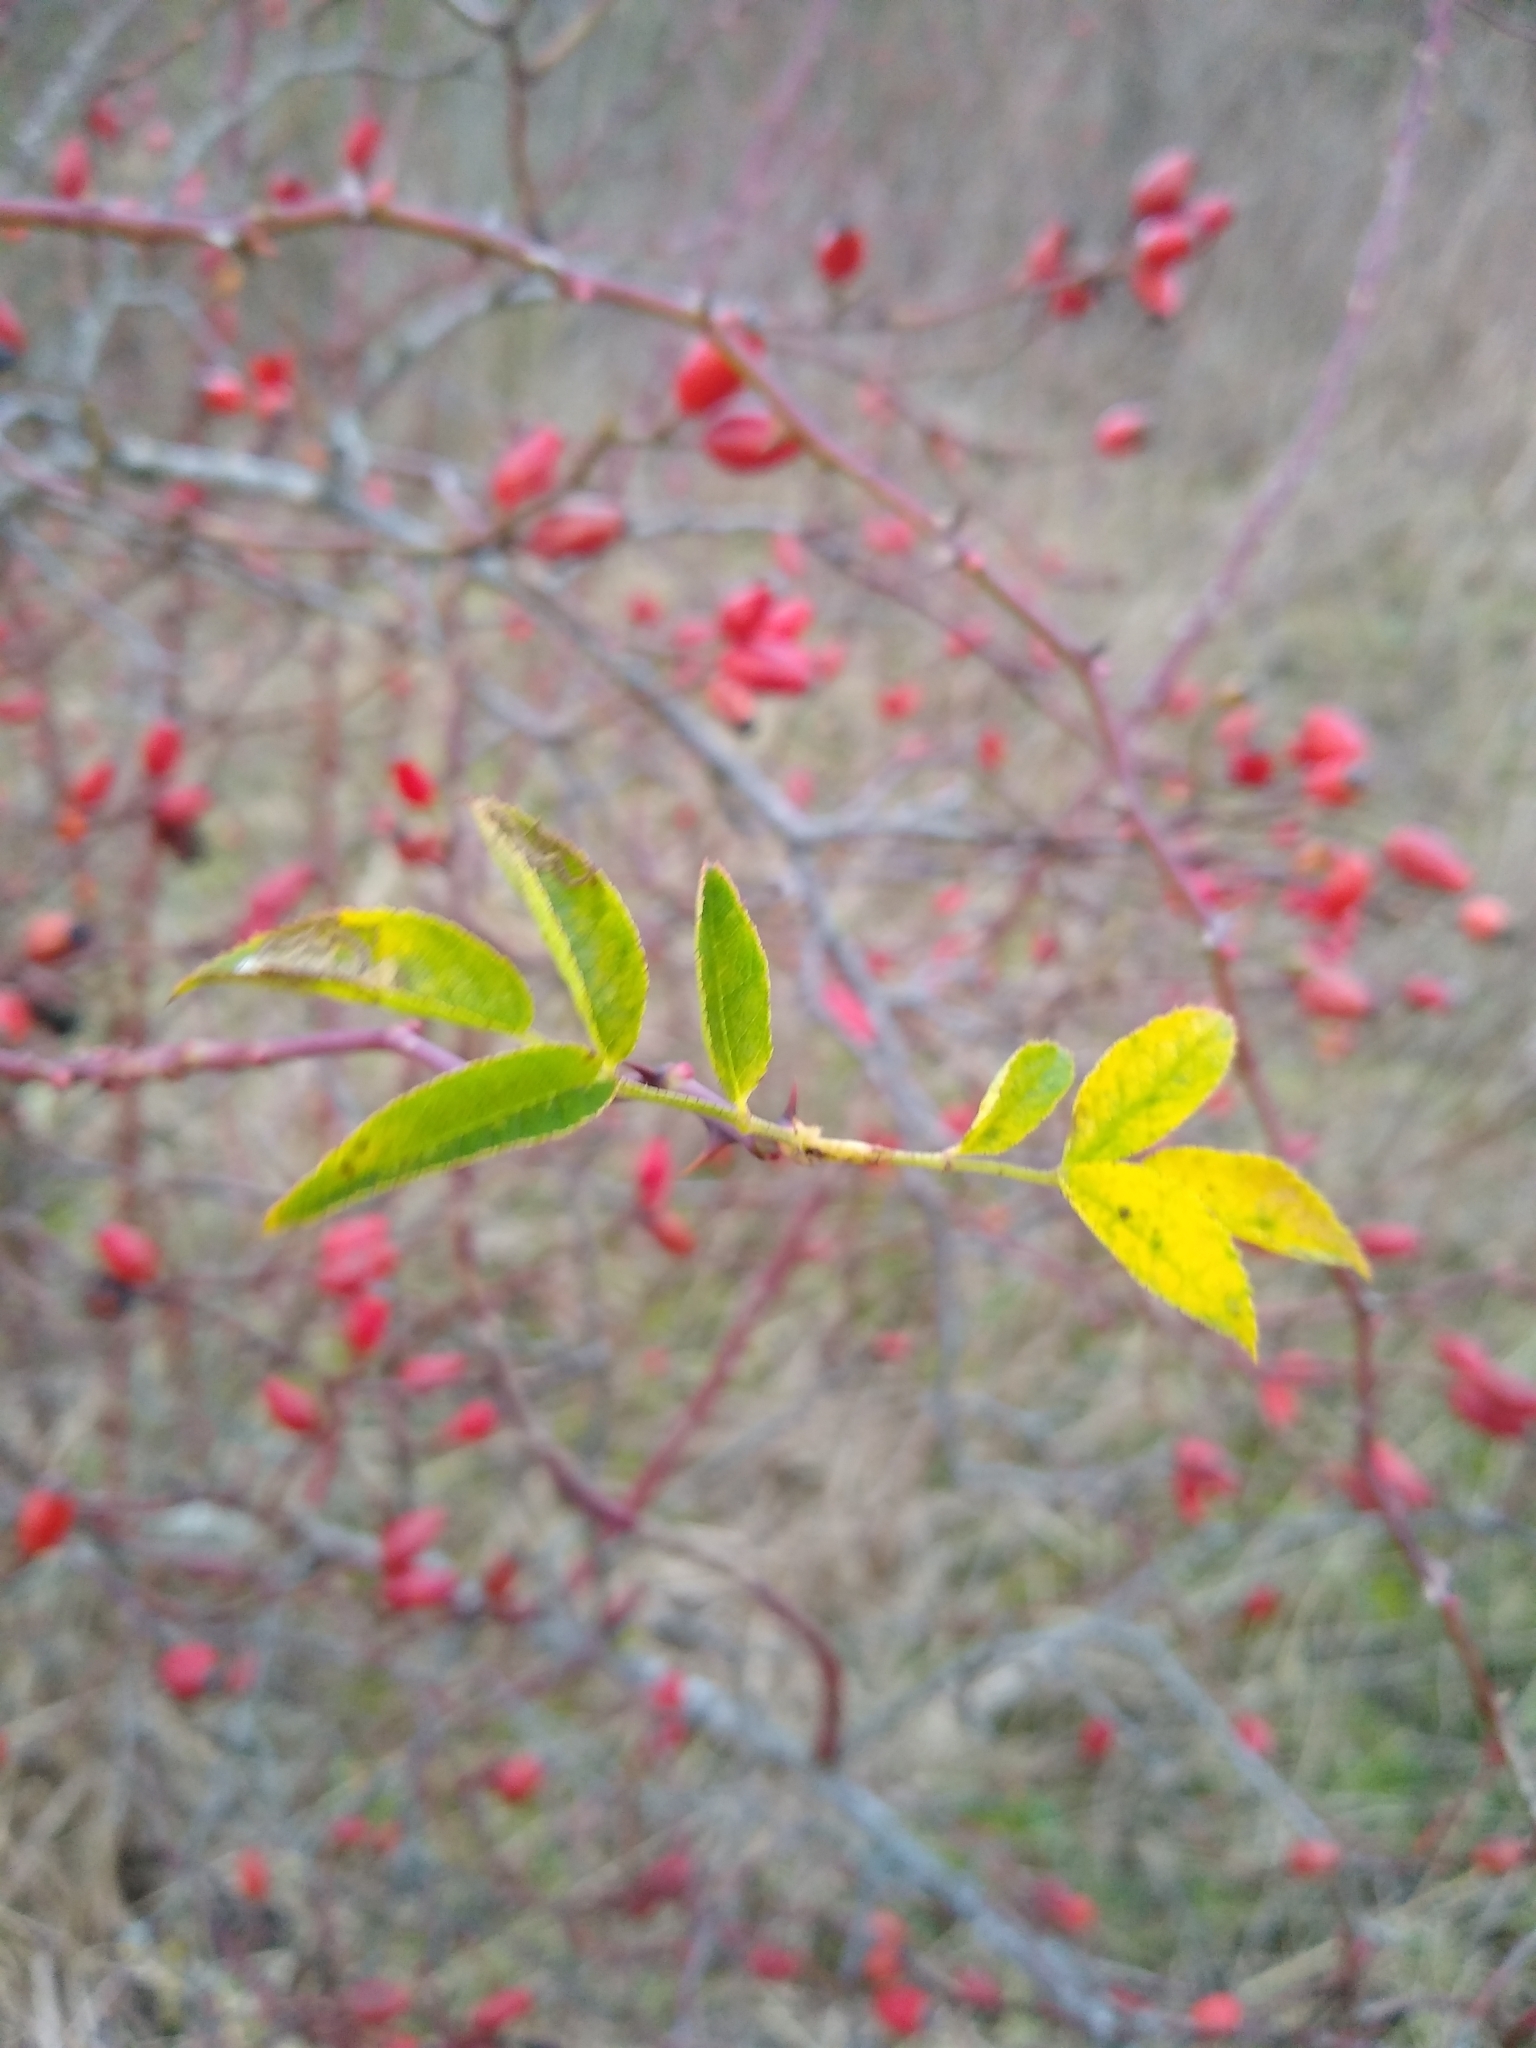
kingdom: Plantae
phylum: Tracheophyta
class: Magnoliopsida
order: Rosales
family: Rosaceae
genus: Rosa
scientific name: Rosa canina
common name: Dog rose
